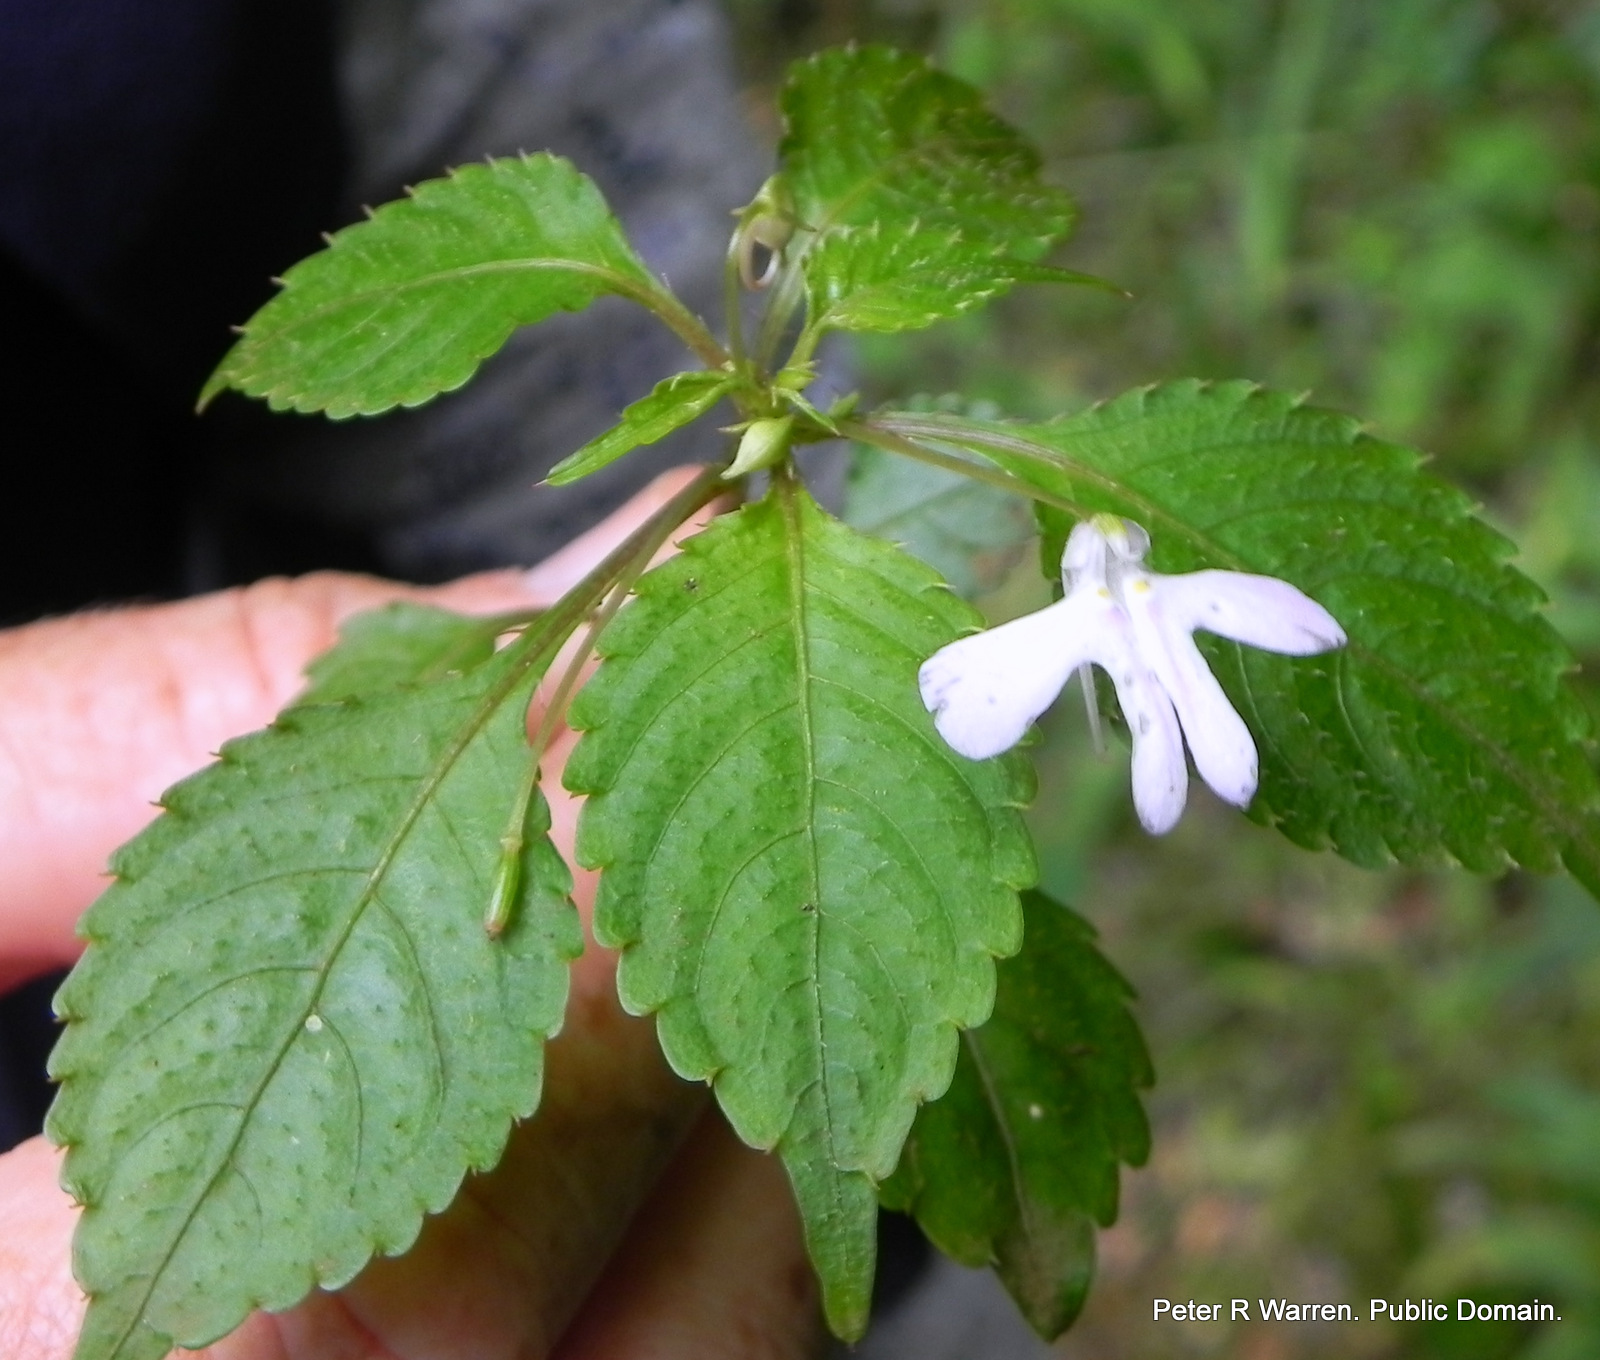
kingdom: Plantae
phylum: Tracheophyta
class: Magnoliopsida
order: Ericales
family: Balsaminaceae
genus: Impatiens
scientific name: Impatiens hochstetteri
